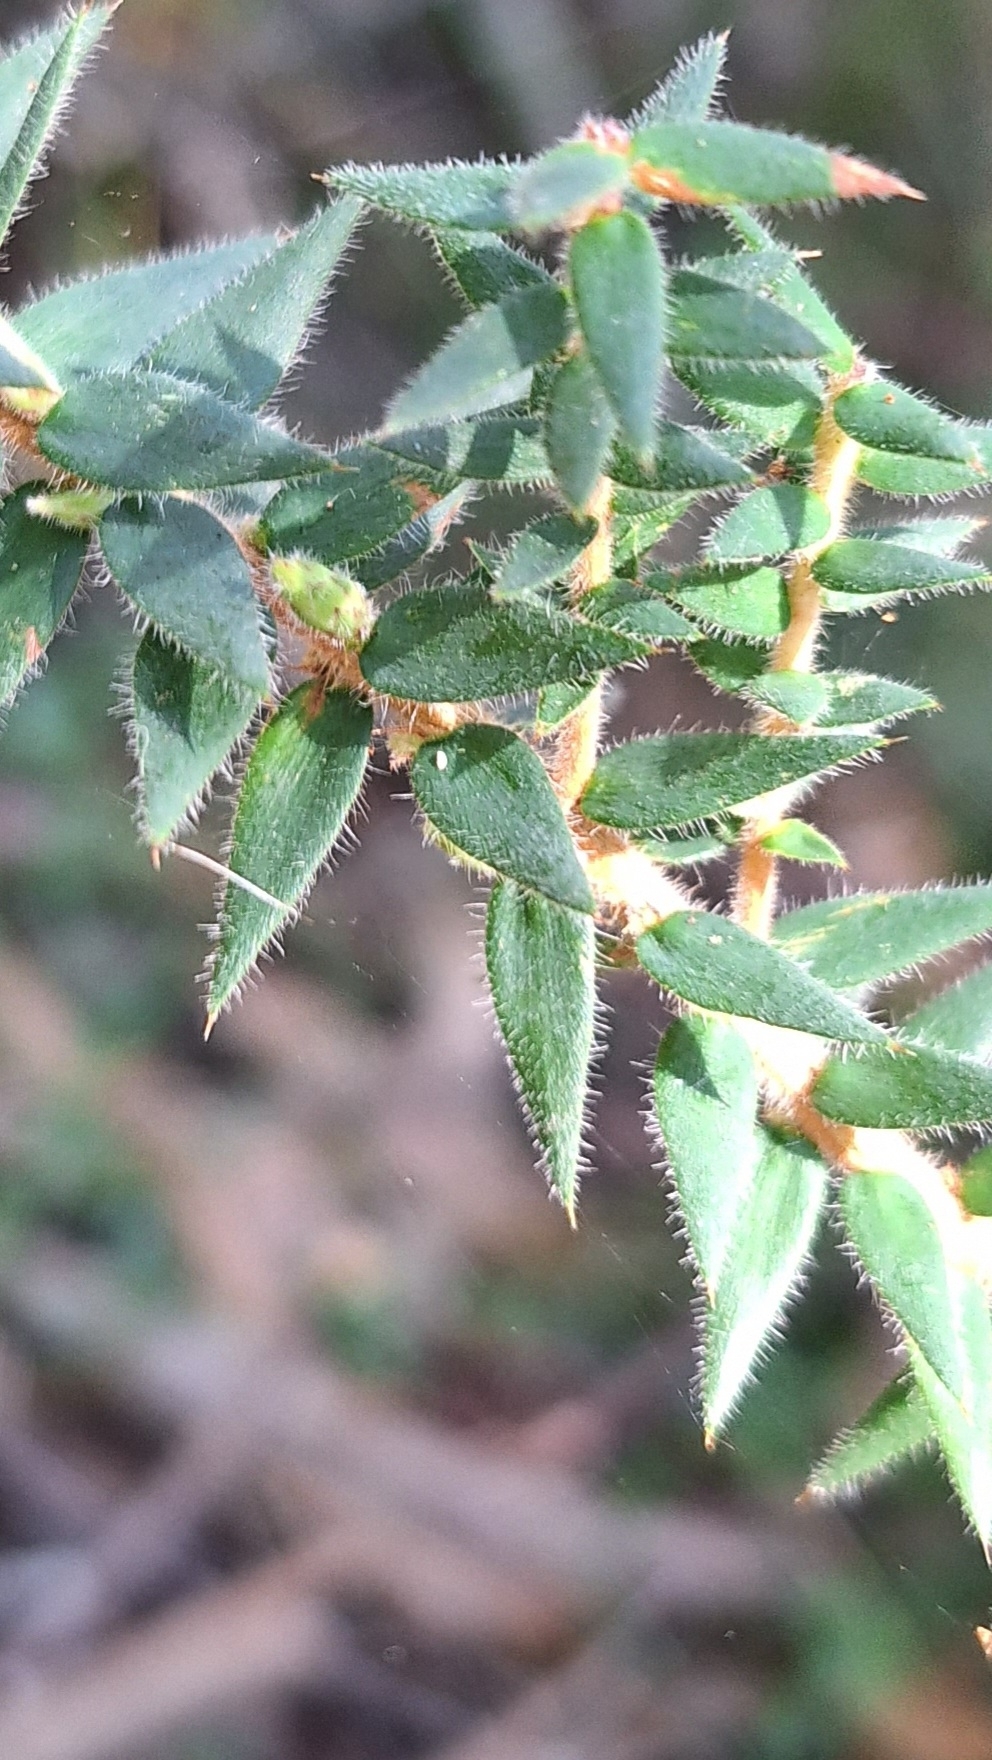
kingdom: Plantae
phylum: Tracheophyta
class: Magnoliopsida
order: Ericales
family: Ericaceae
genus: Acrotriche
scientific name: Acrotriche fasciculiflora
